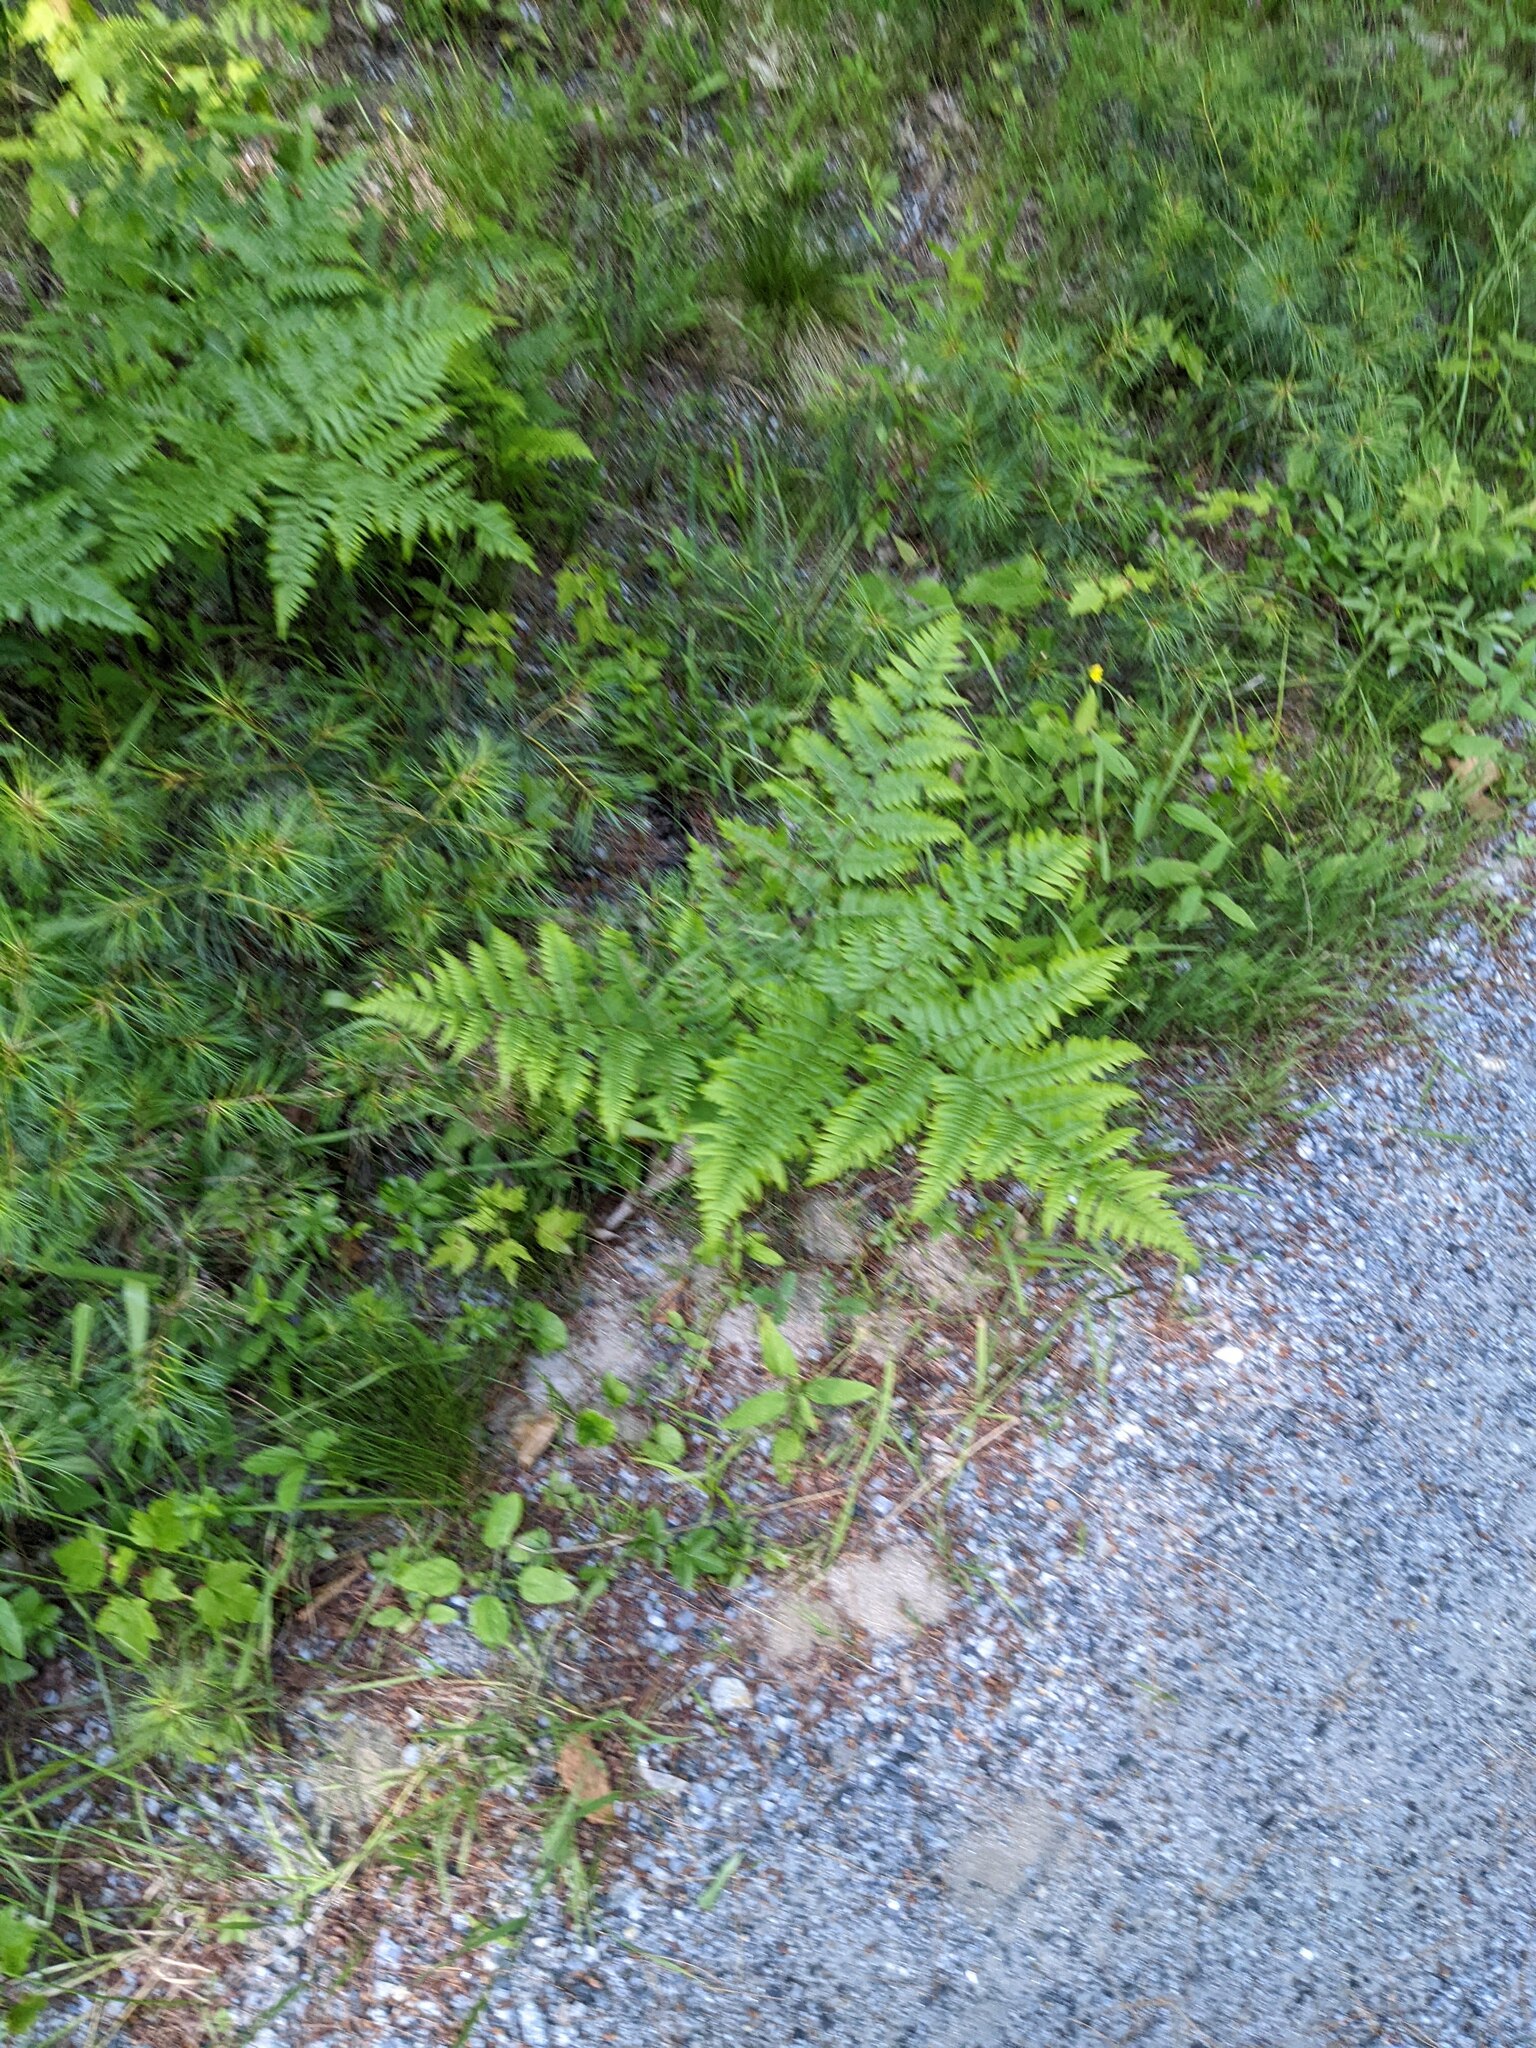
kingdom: Plantae
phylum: Tracheophyta
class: Polypodiopsida
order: Polypodiales
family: Dennstaedtiaceae
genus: Pteridium
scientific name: Pteridium aquilinum
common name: Bracken
